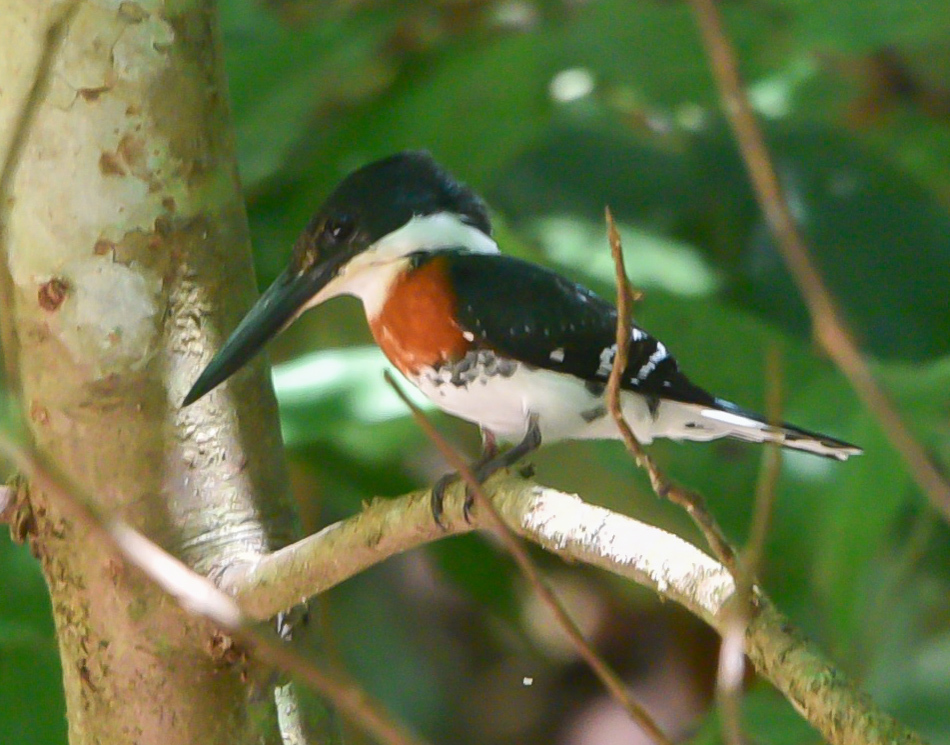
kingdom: Animalia
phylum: Chordata
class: Aves
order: Coraciiformes
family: Alcedinidae
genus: Chloroceryle
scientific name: Chloroceryle americana
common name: Green kingfisher
